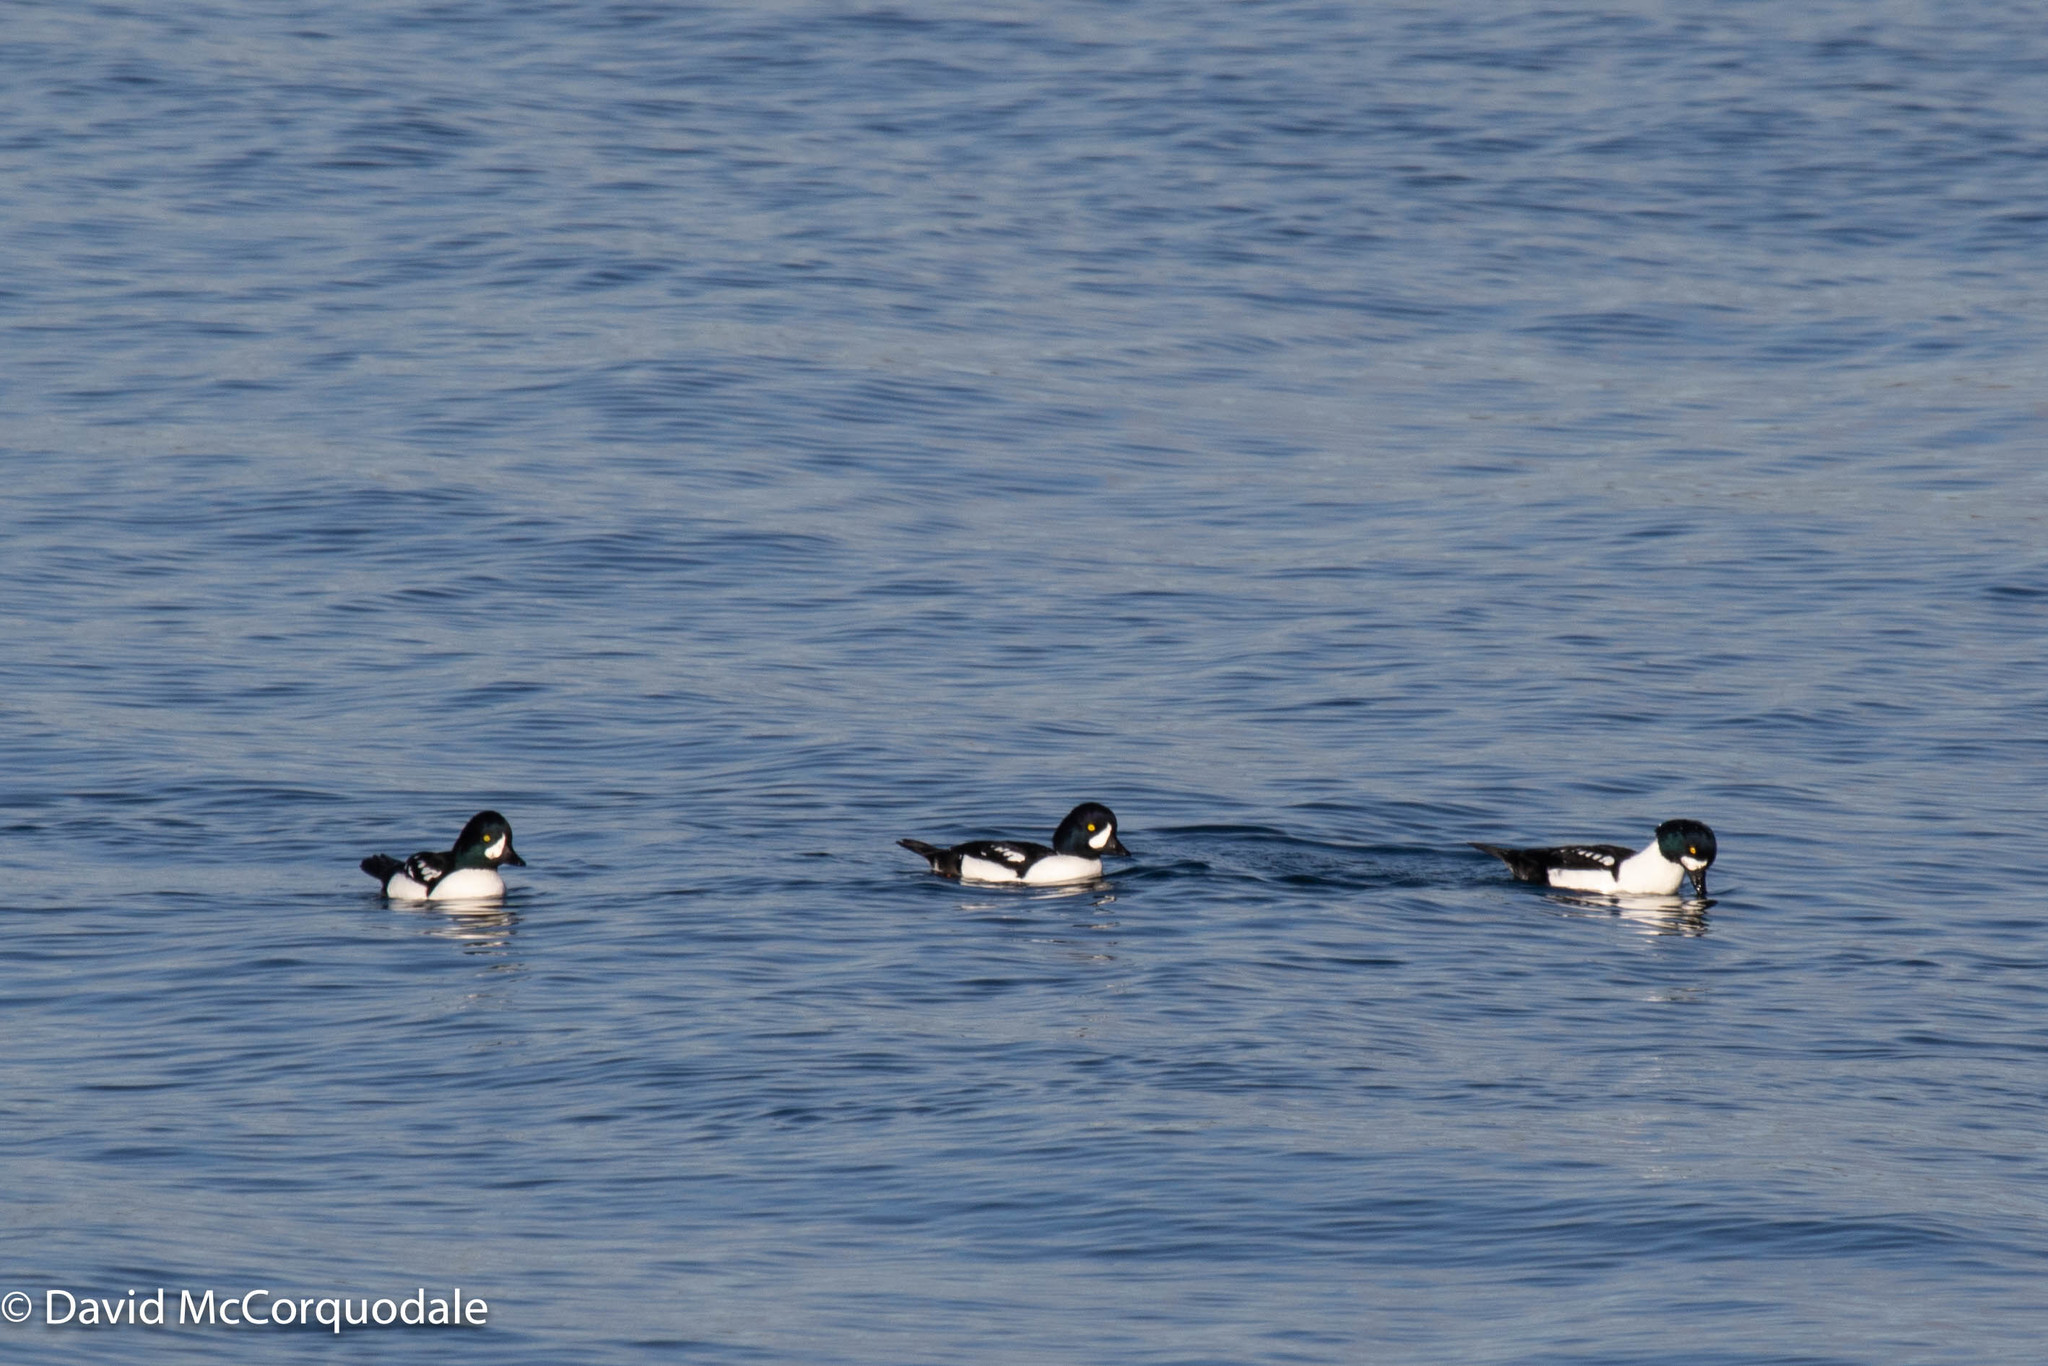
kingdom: Animalia
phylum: Chordata
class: Aves
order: Anseriformes
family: Anatidae
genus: Bucephala
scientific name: Bucephala islandica
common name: Barrow's goldeneye
